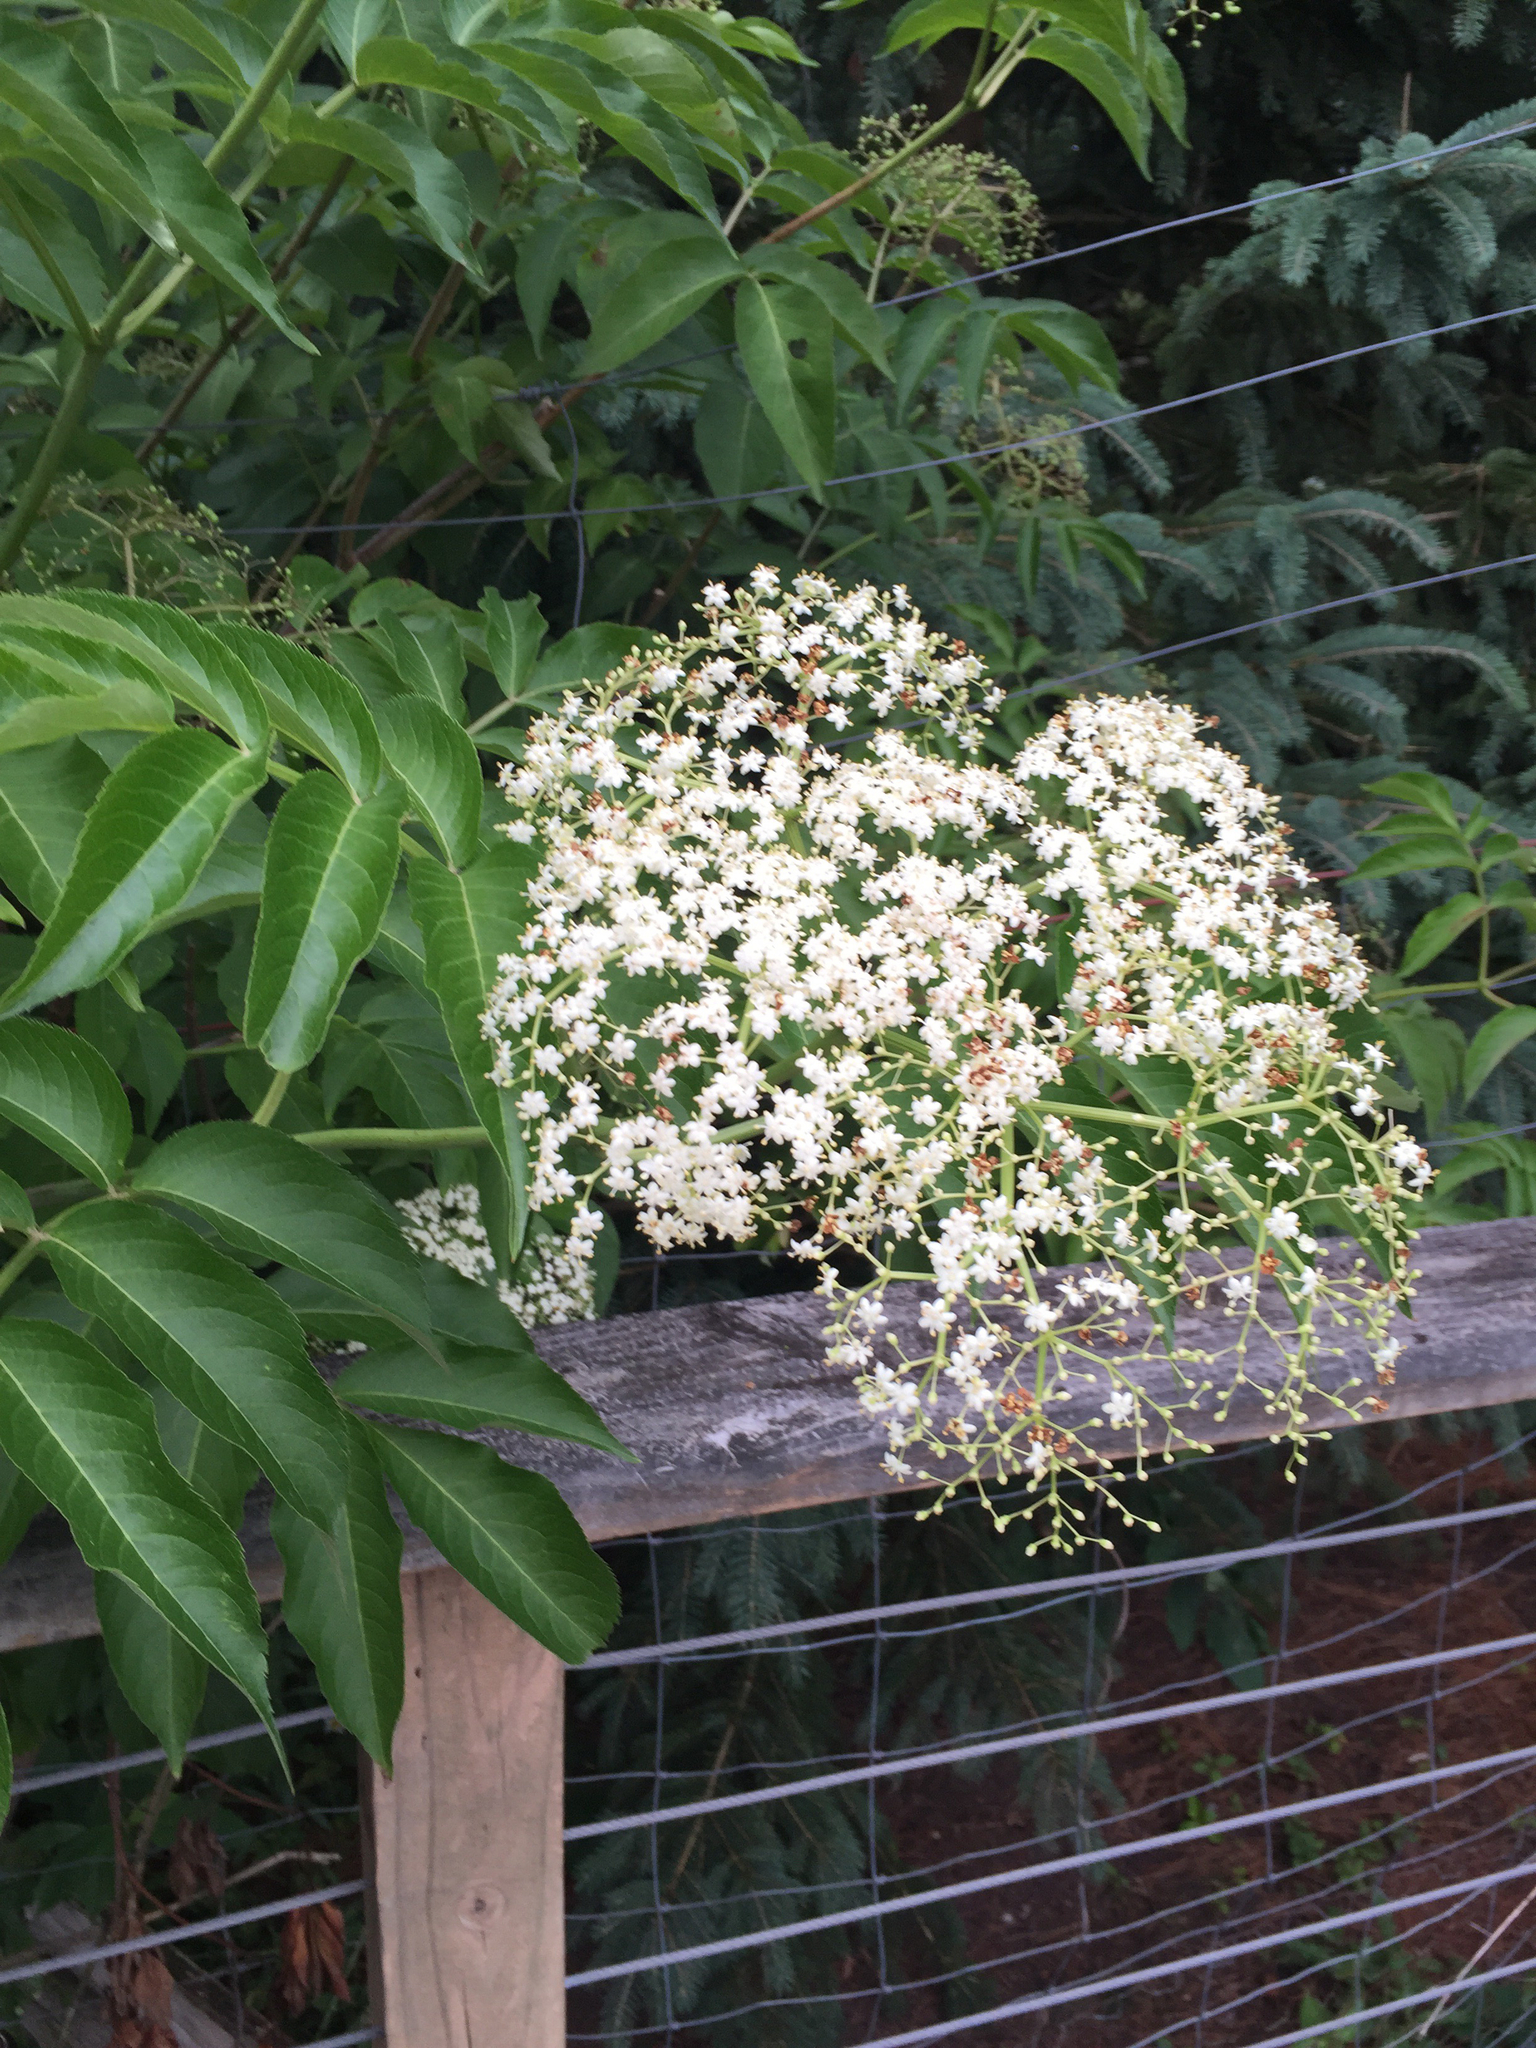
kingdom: Plantae
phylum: Tracheophyta
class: Magnoliopsida
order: Dipsacales
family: Viburnaceae
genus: Sambucus
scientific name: Sambucus canadensis
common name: American elder
